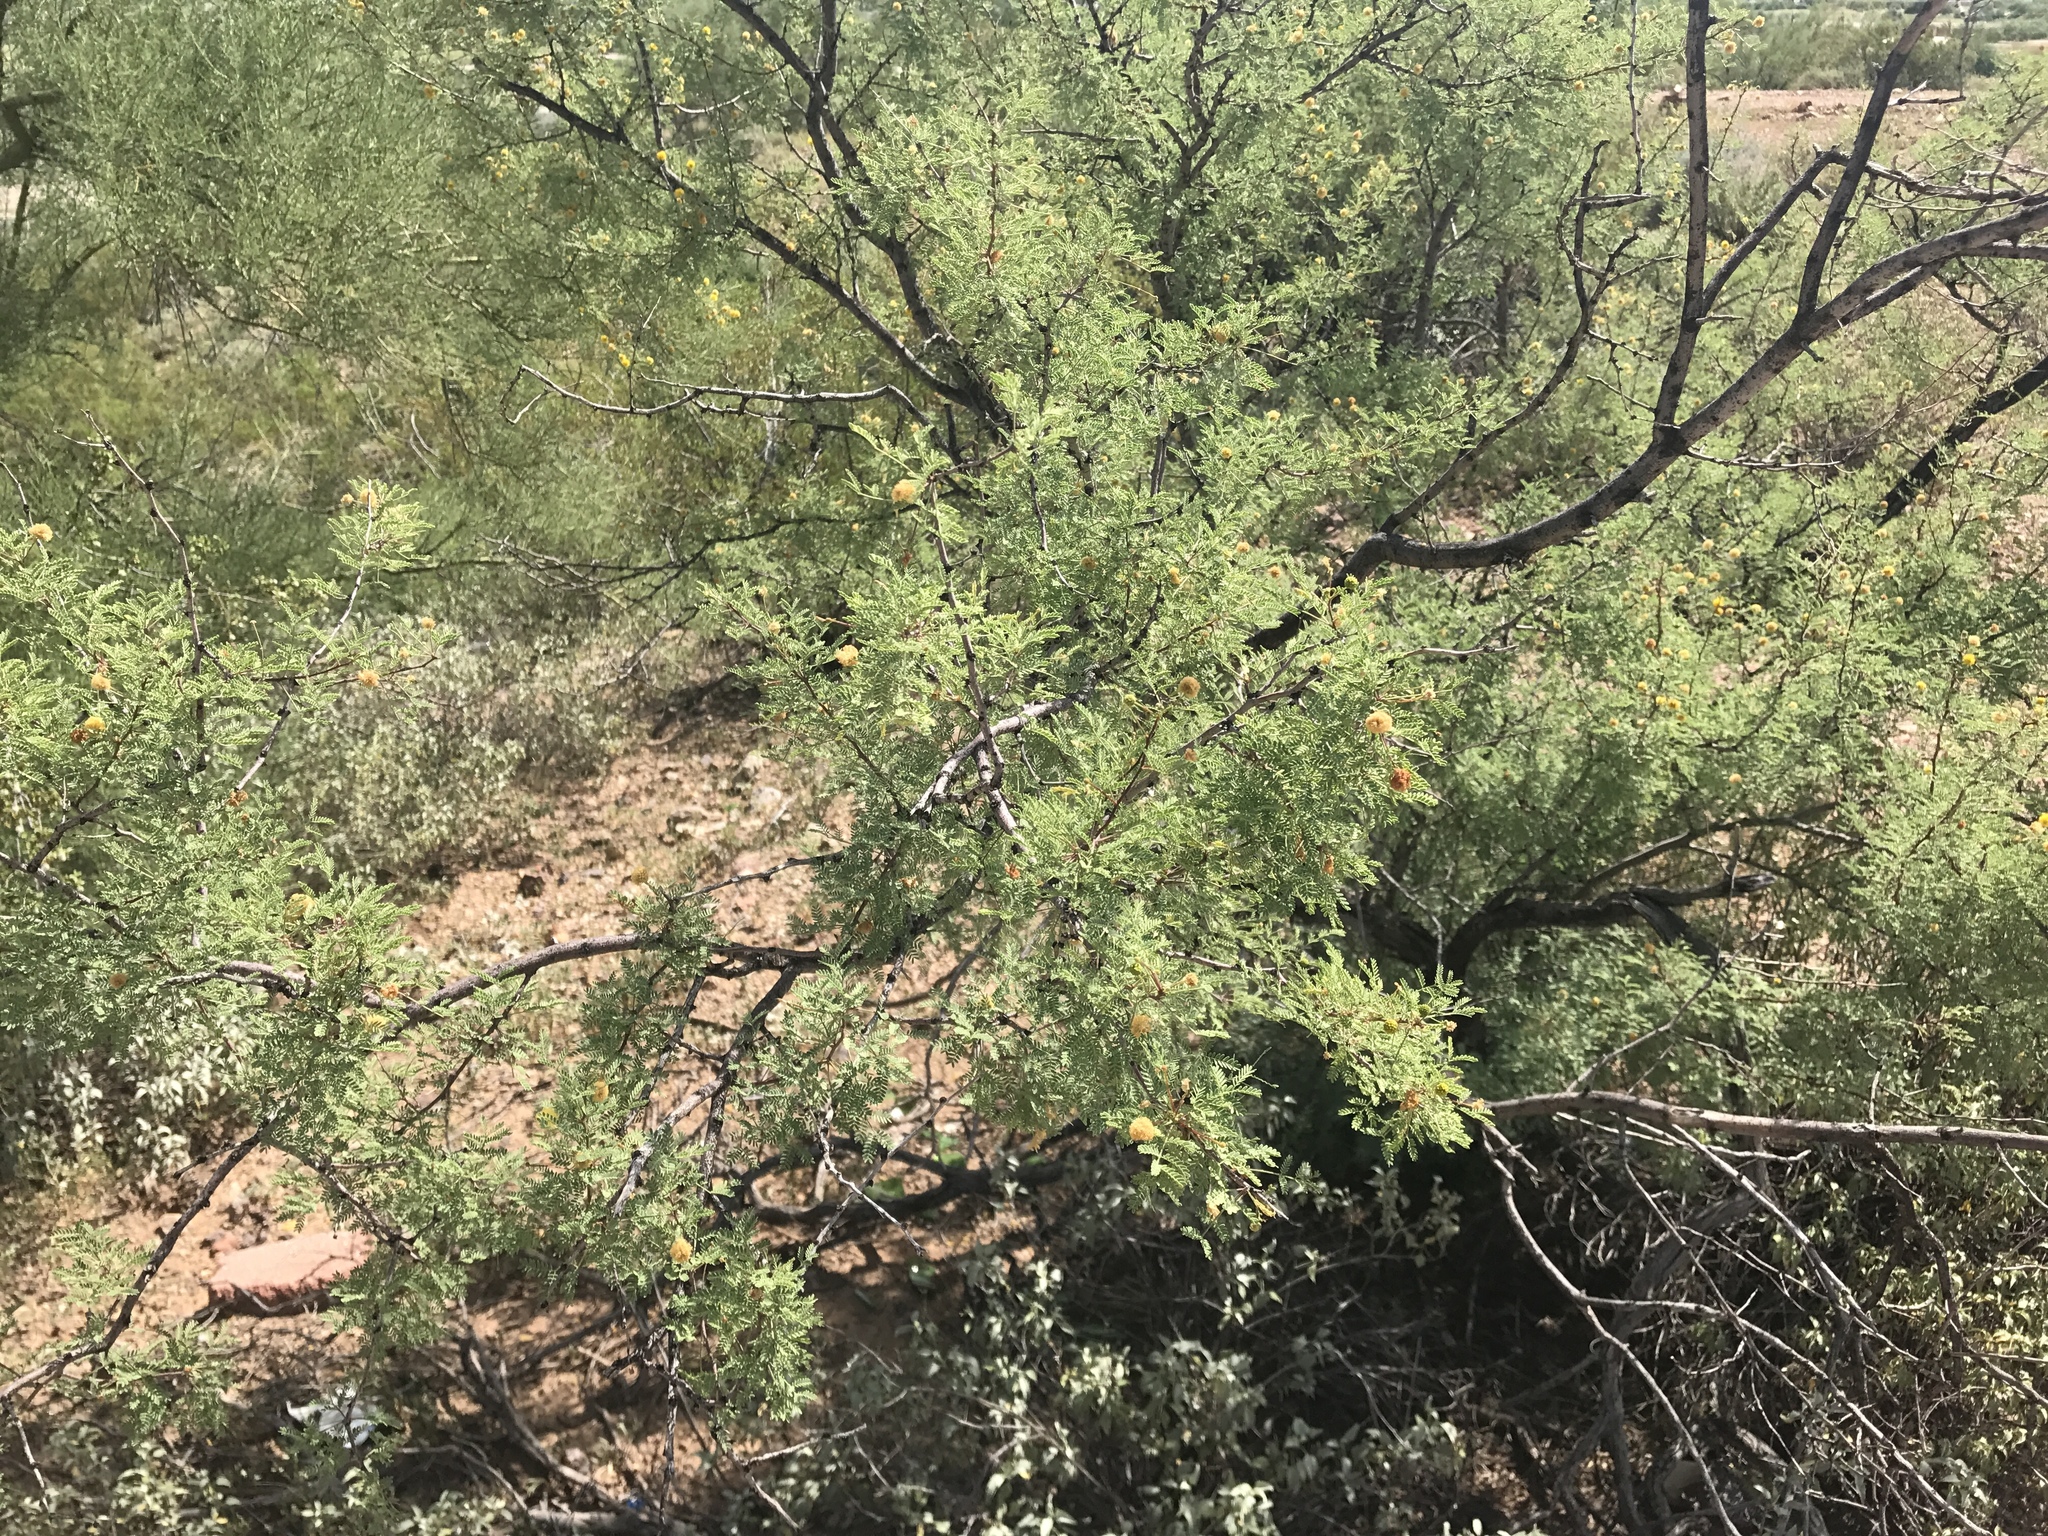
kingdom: Plantae
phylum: Tracheophyta
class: Magnoliopsida
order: Fabales
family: Fabaceae
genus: Vachellia
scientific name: Vachellia constricta
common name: Mescat acacia
